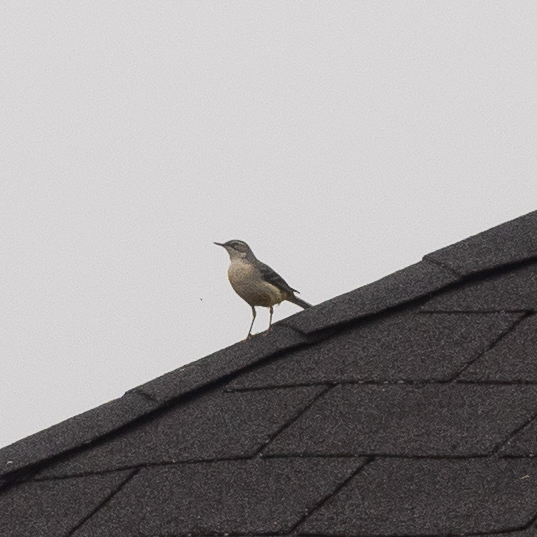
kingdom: Animalia
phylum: Chordata
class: Aves
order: Passeriformes
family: Motacillidae
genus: Motacilla
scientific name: Motacilla cinerea
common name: Grey wagtail
